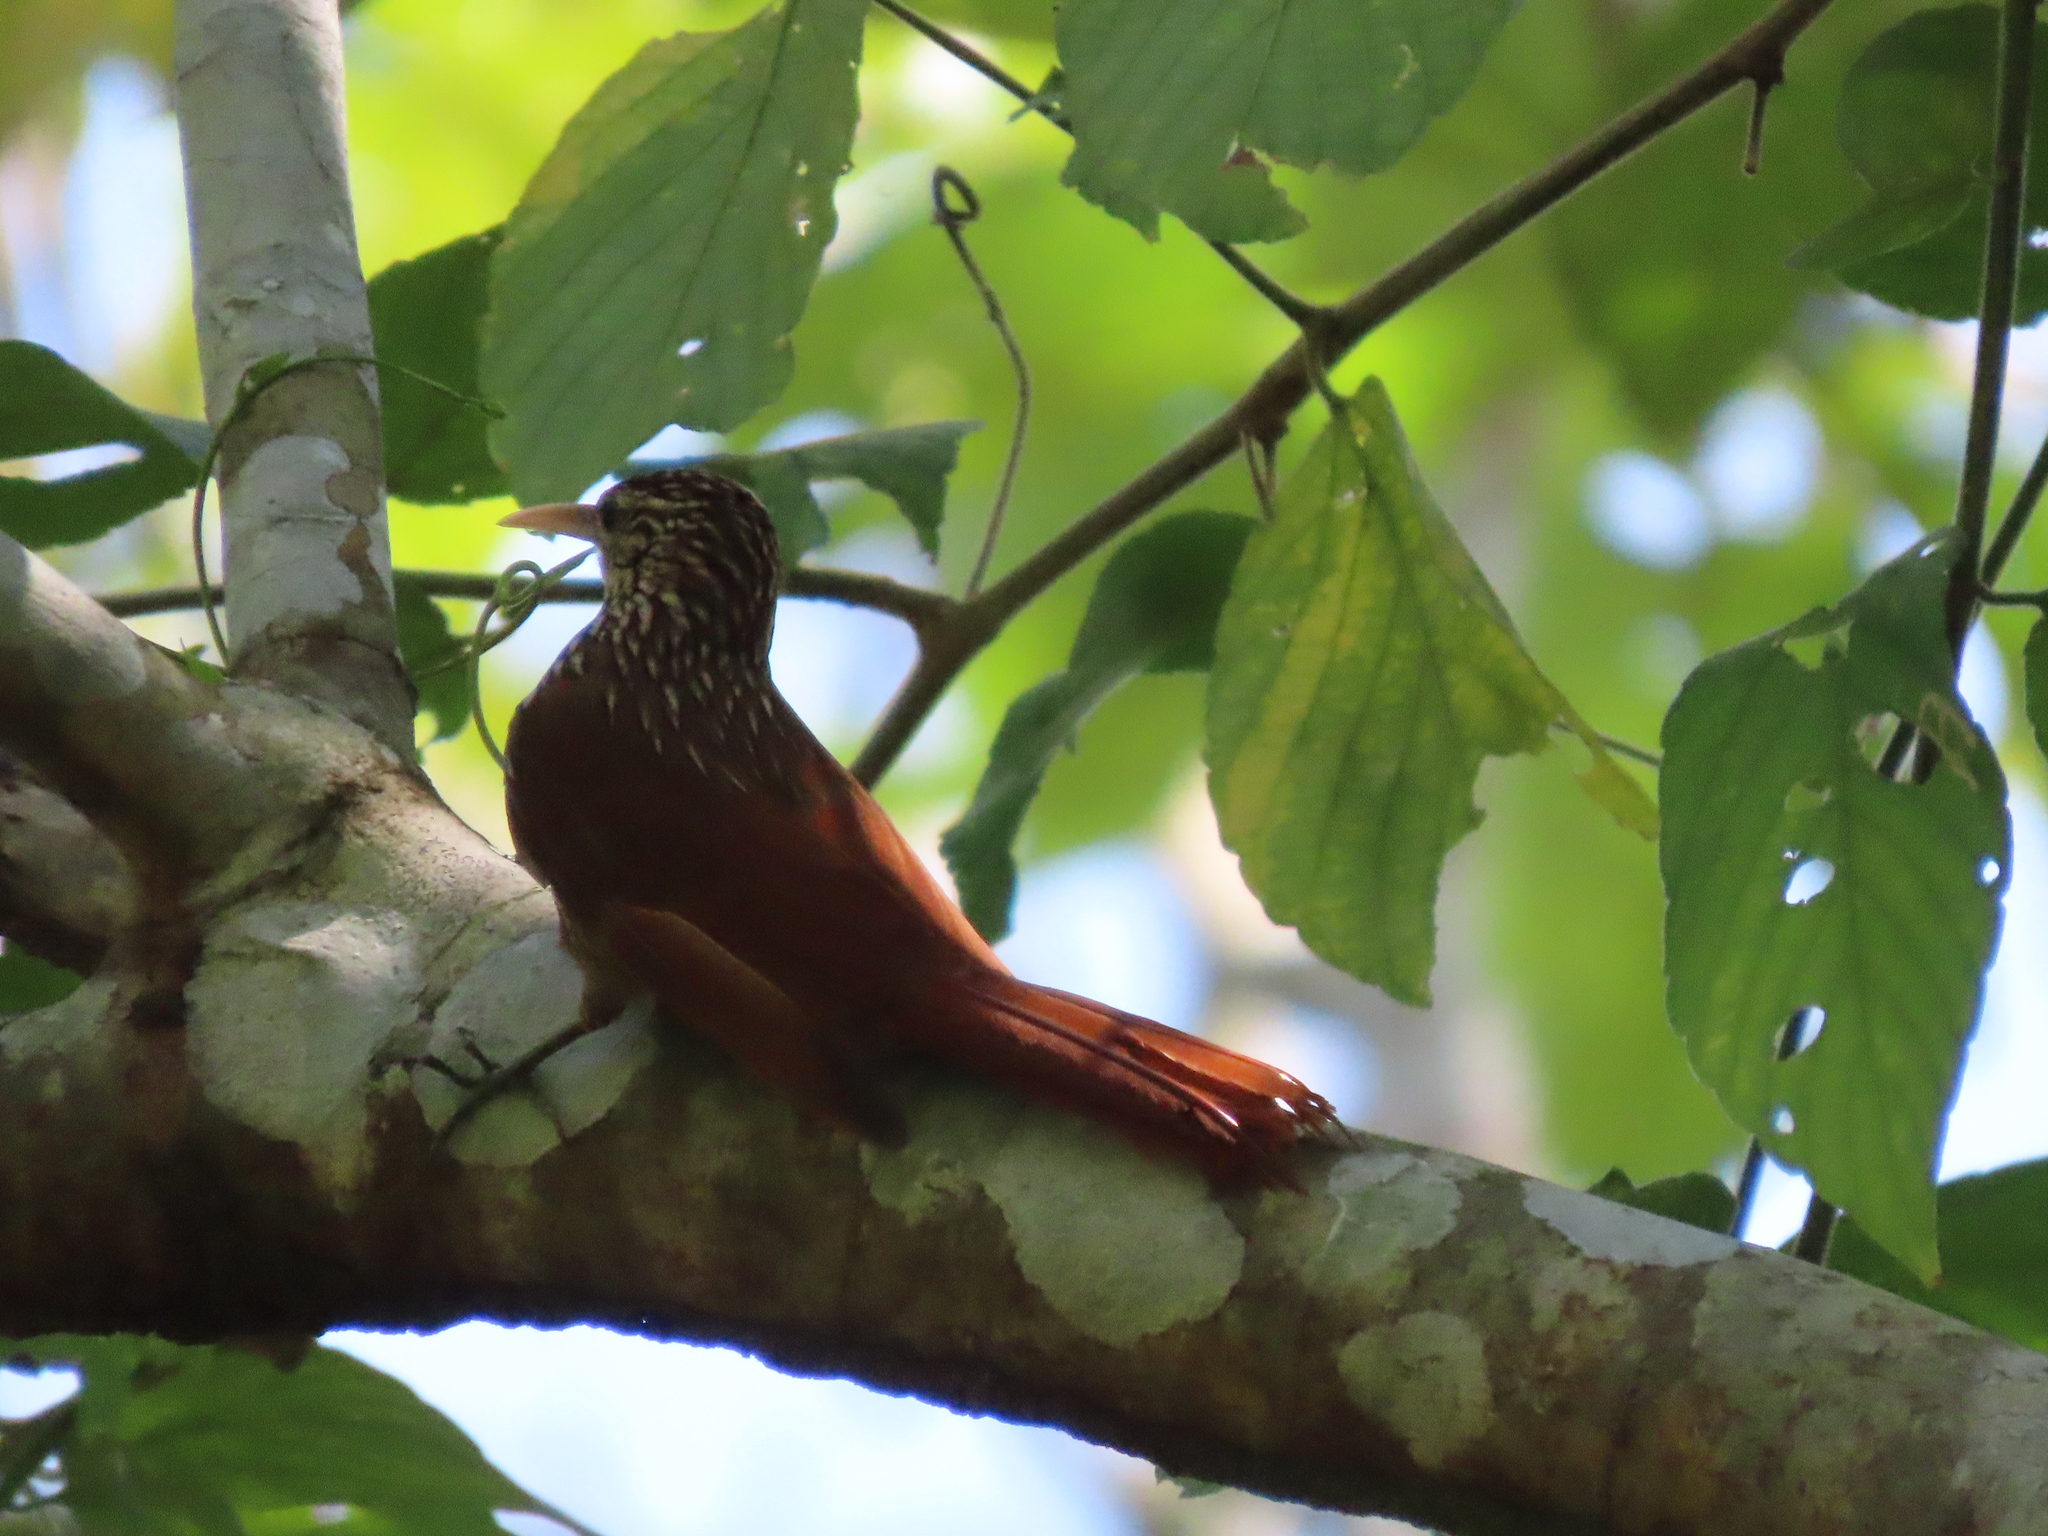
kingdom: Animalia
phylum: Chordata
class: Aves
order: Passeriformes
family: Furnariidae
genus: Lepidocolaptes
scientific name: Lepidocolaptes souleyetii
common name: Streak-headed woodcreeper
